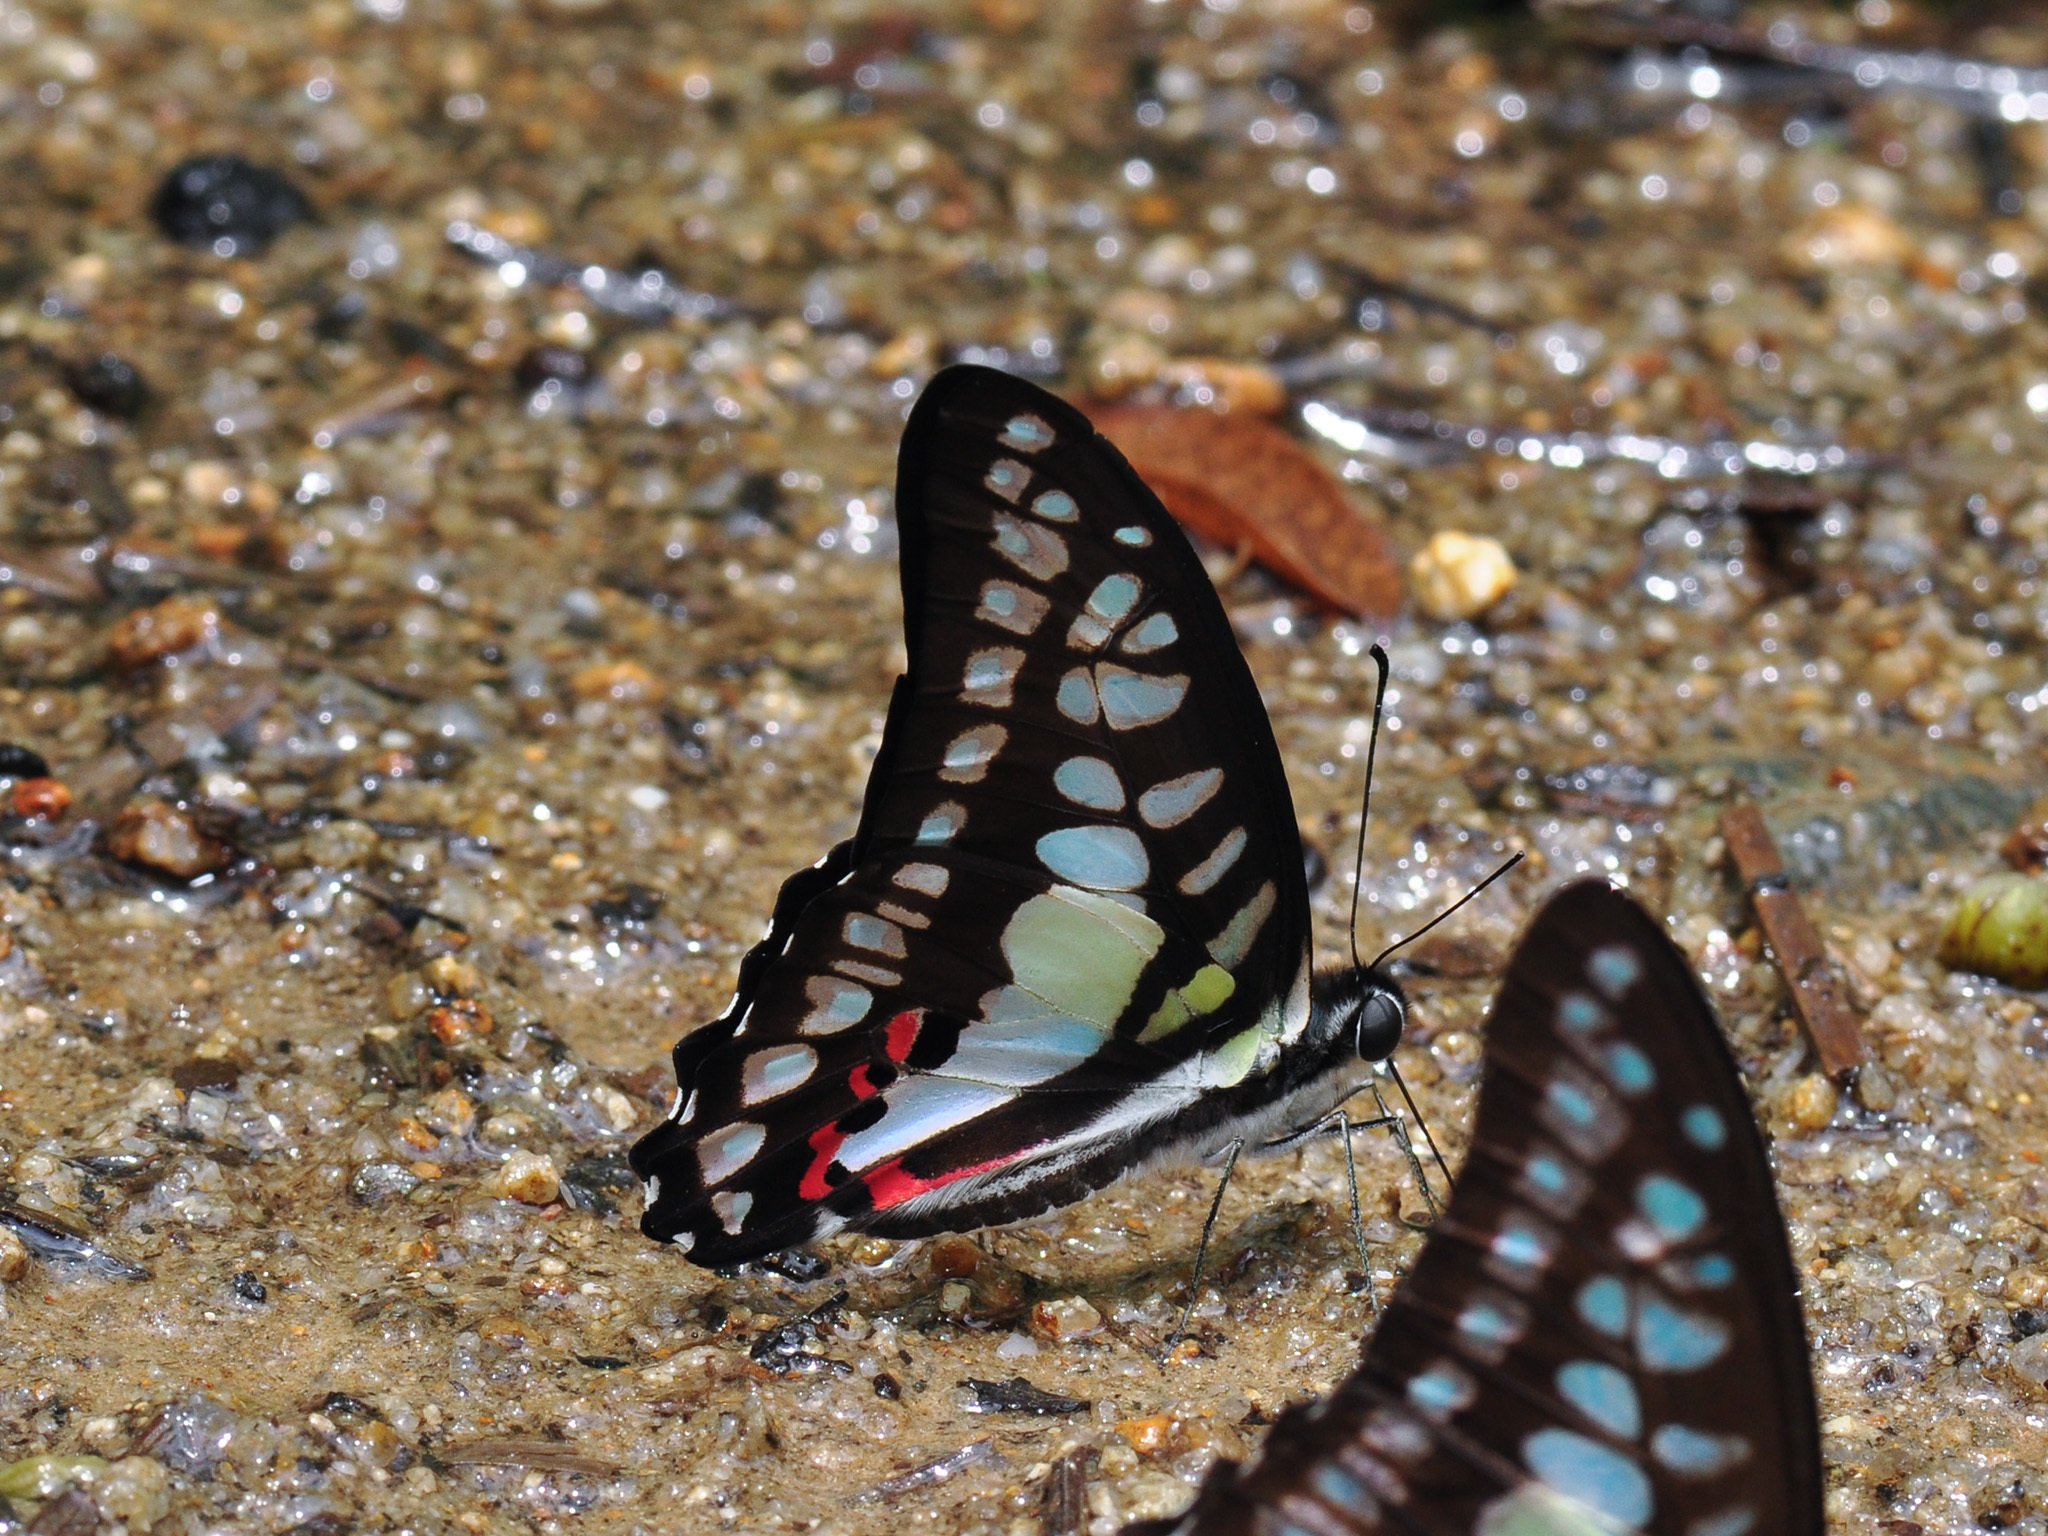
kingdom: Animalia
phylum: Arthropoda
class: Insecta
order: Lepidoptera
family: Papilionidae
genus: Graphium
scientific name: Graphium evemon
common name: Lesser jay
